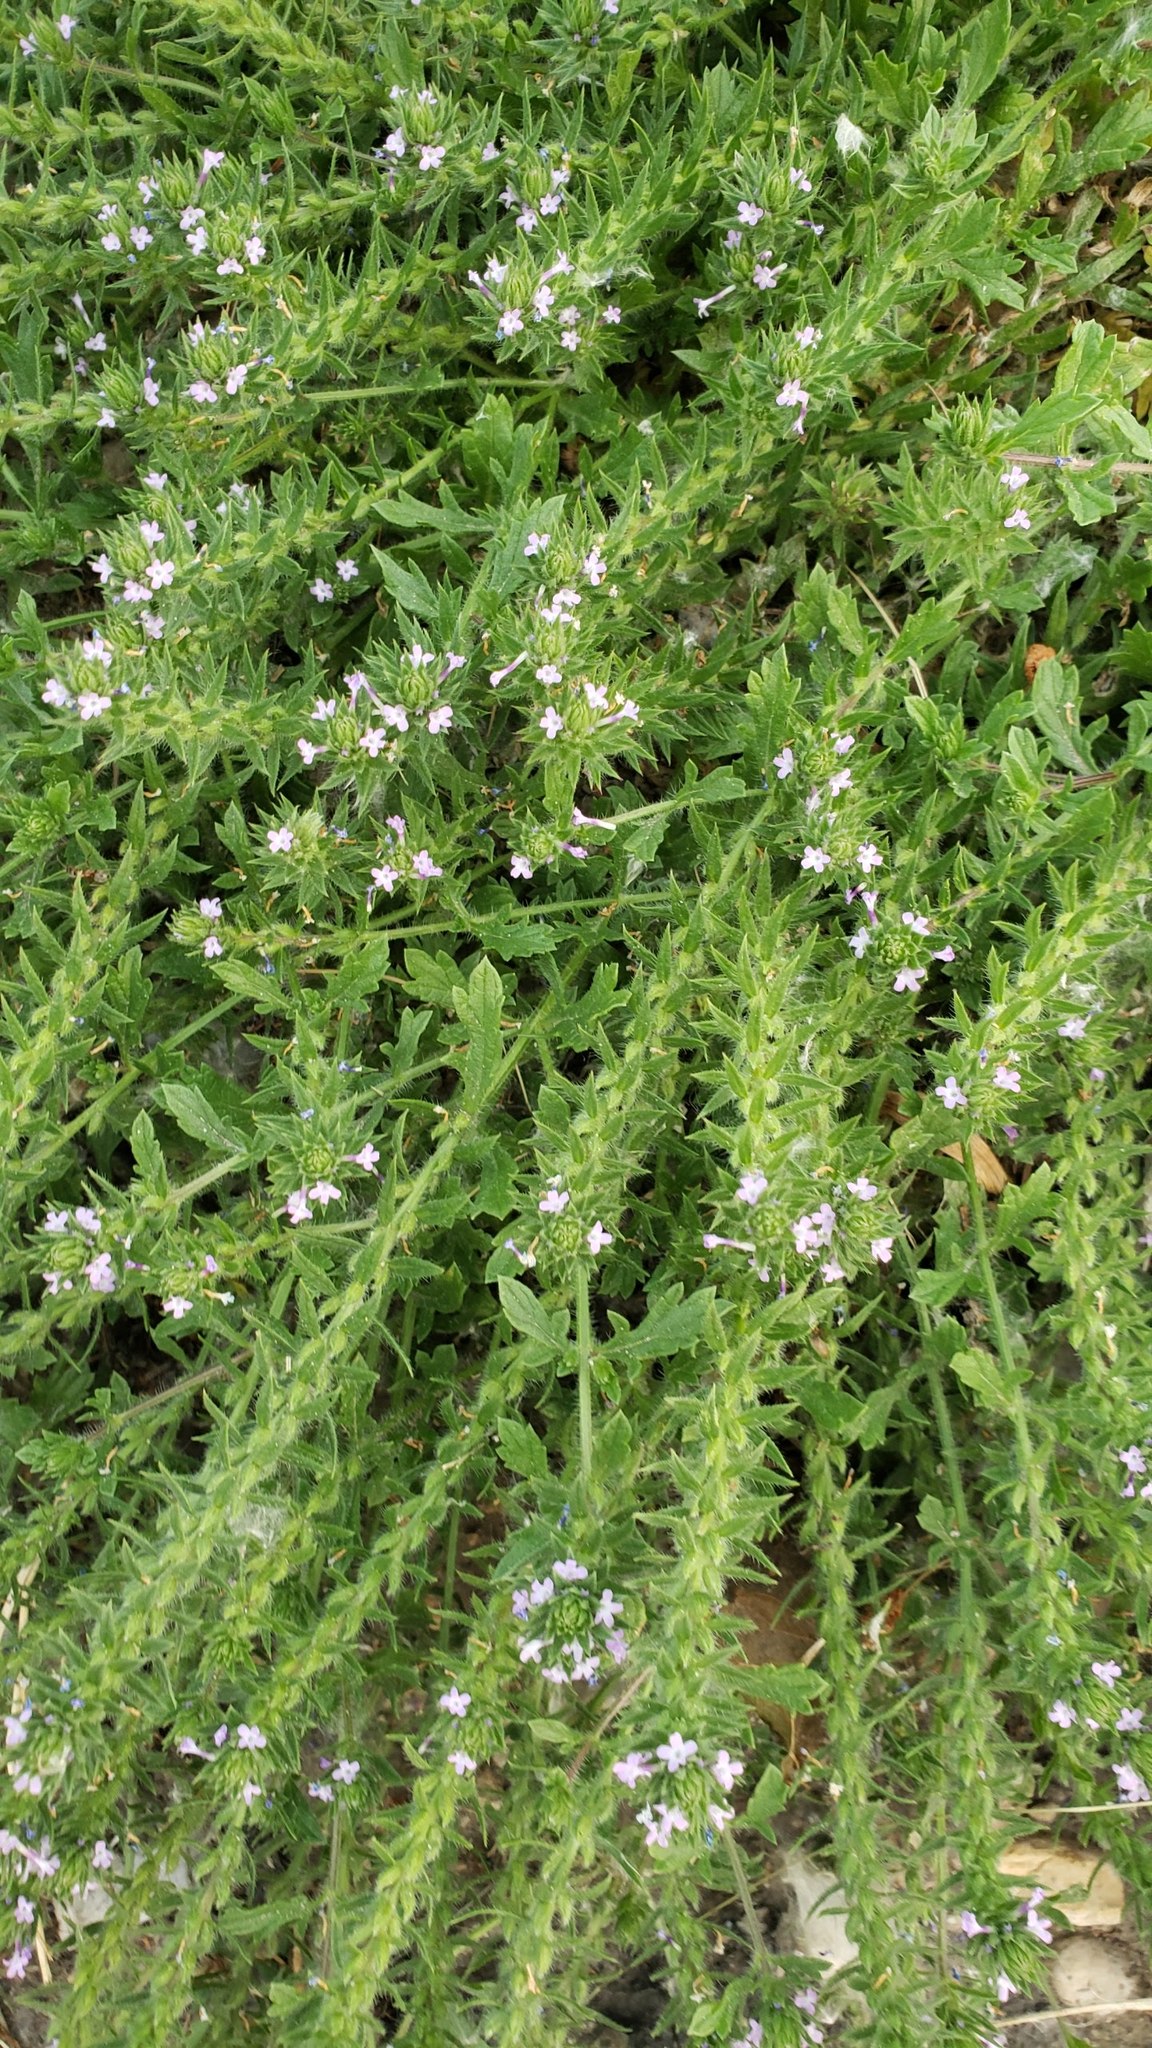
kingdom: Plantae
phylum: Tracheophyta
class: Magnoliopsida
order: Lamiales
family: Verbenaceae
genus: Verbena
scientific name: Verbena bracteata
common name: Bracted vervain
